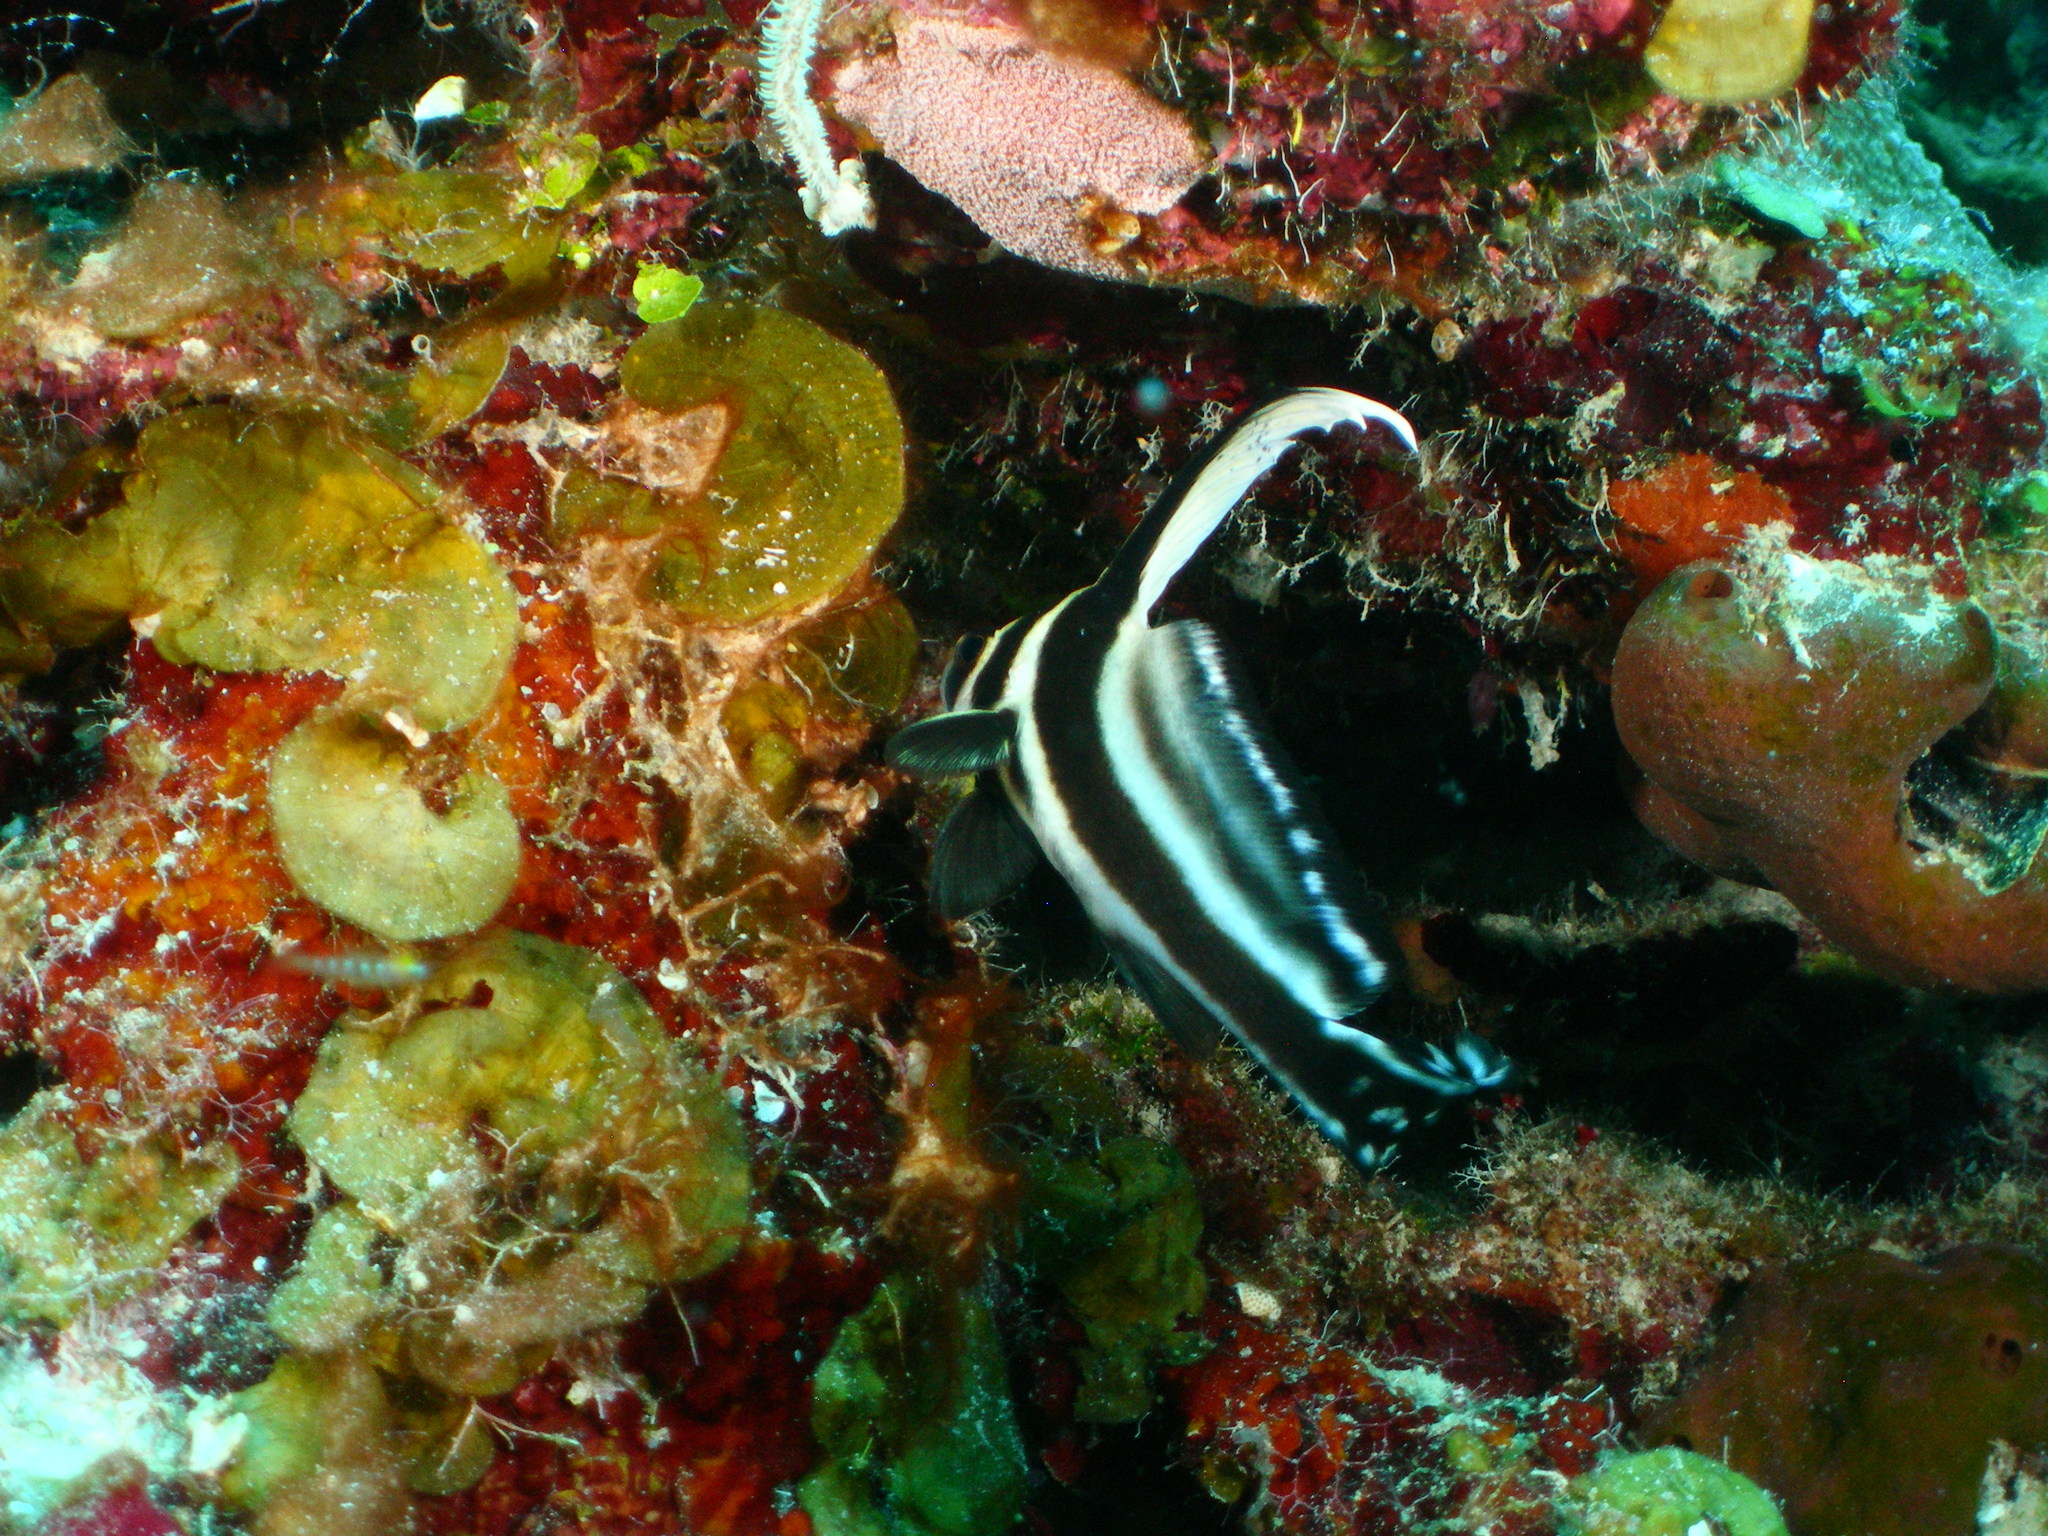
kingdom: Animalia
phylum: Chordata
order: Perciformes
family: Sciaenidae
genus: Equetus
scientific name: Equetus punctatus
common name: Spotted drum
